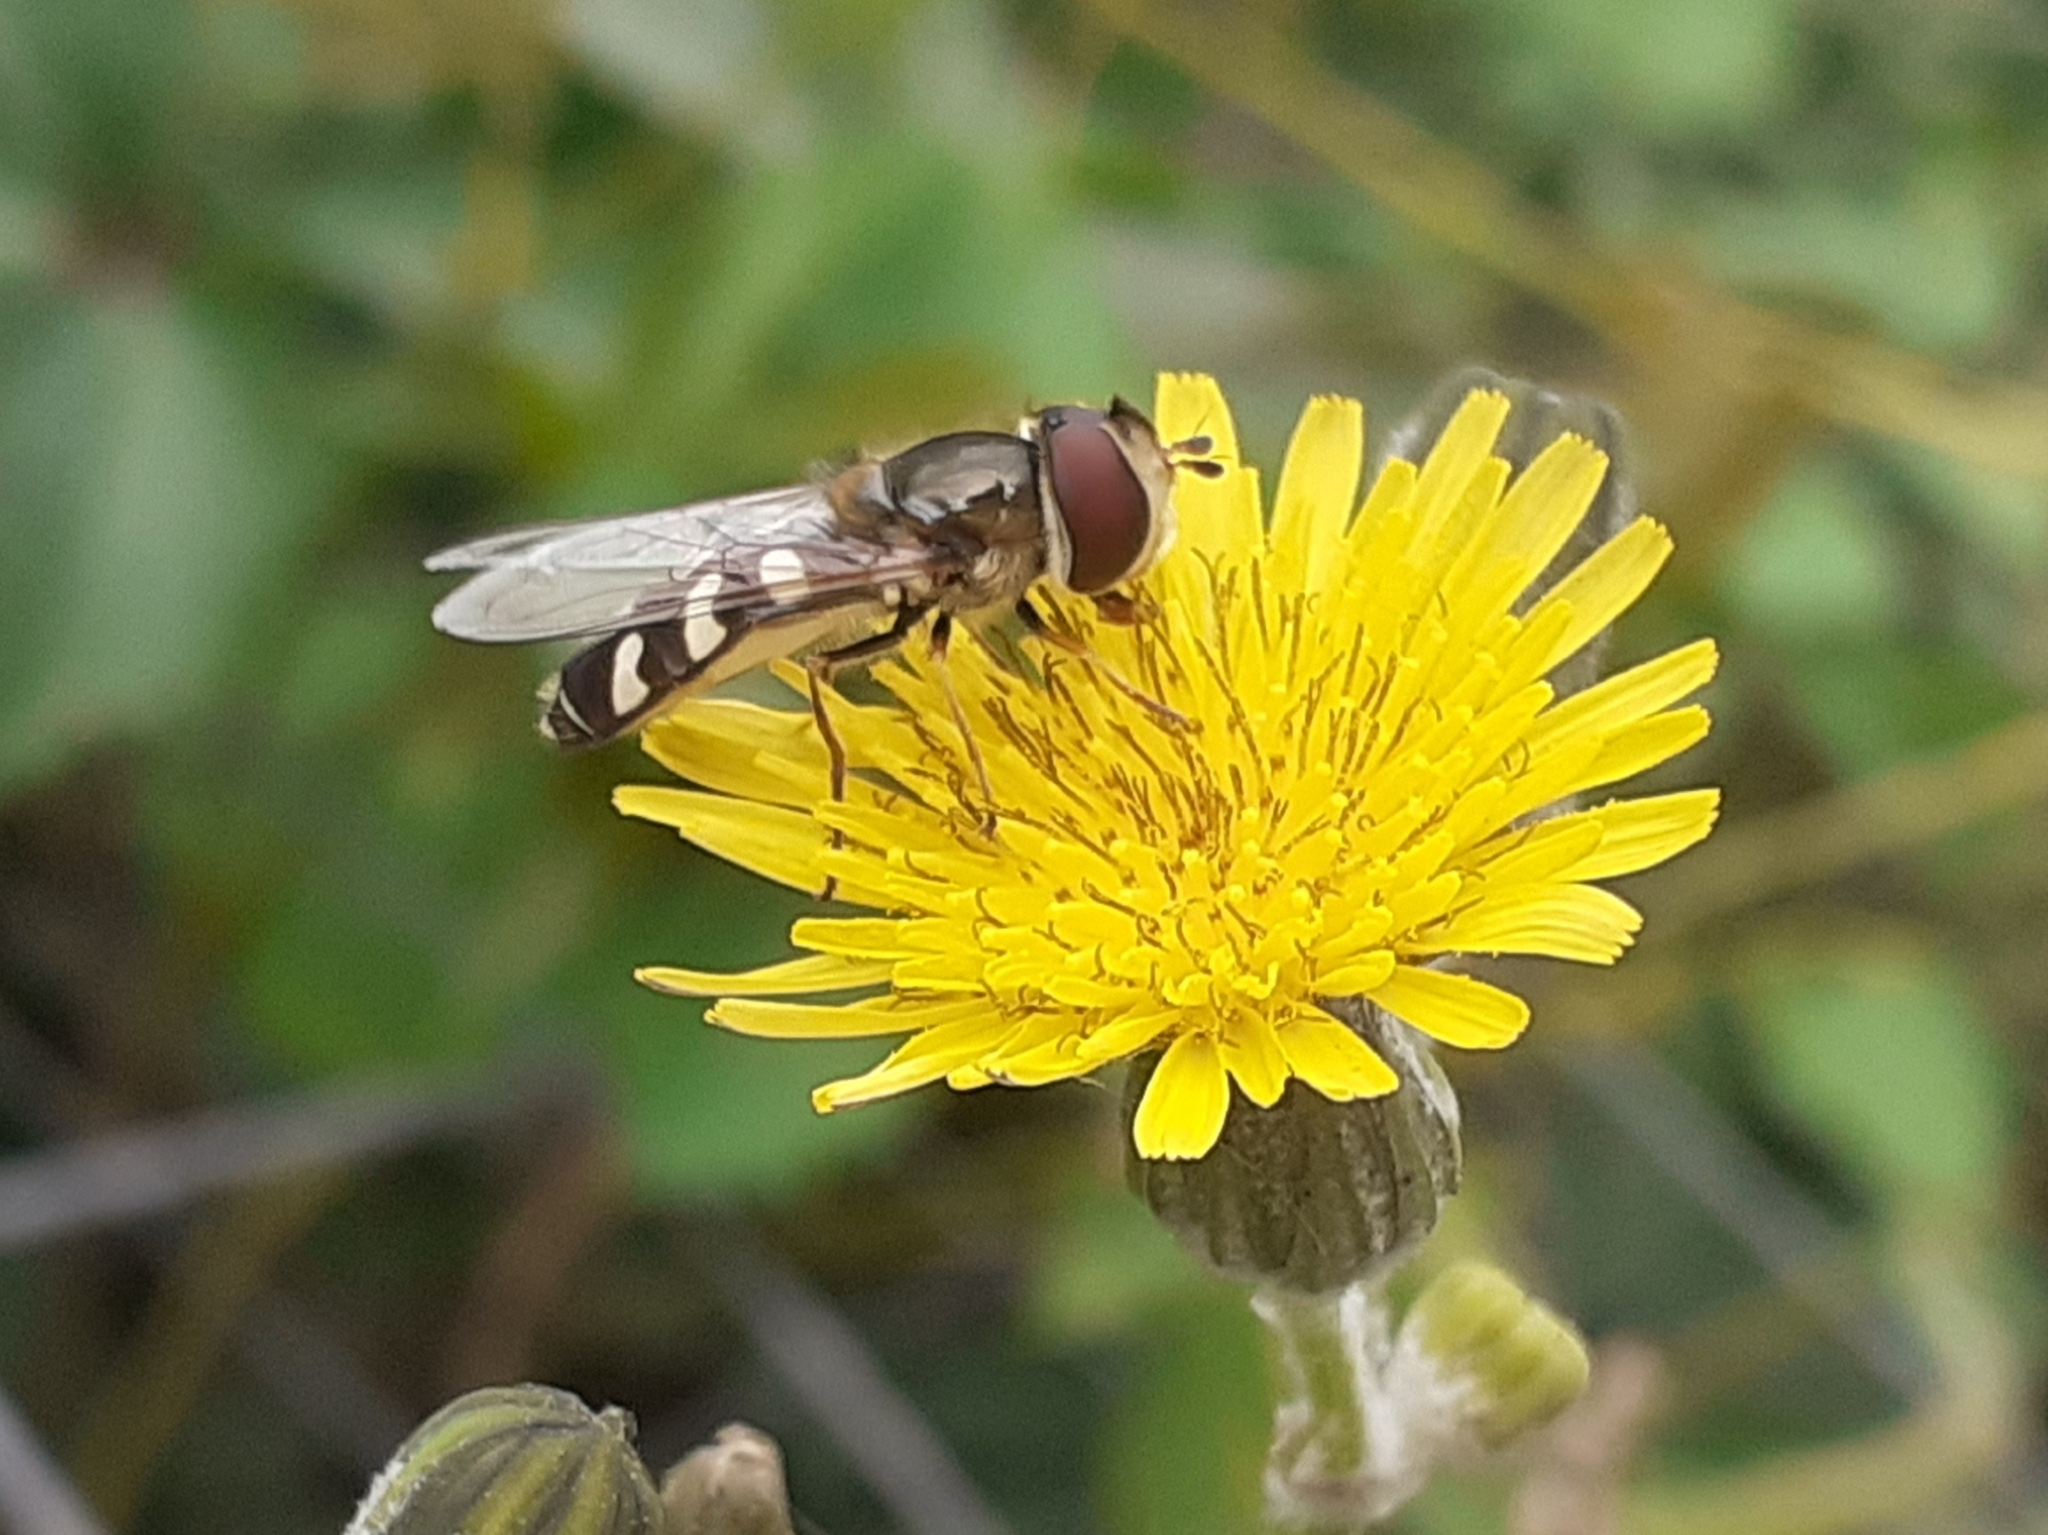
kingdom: Animalia
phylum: Arthropoda
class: Insecta
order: Diptera
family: Syrphidae
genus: Scaeva
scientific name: Scaeva pyrastri
